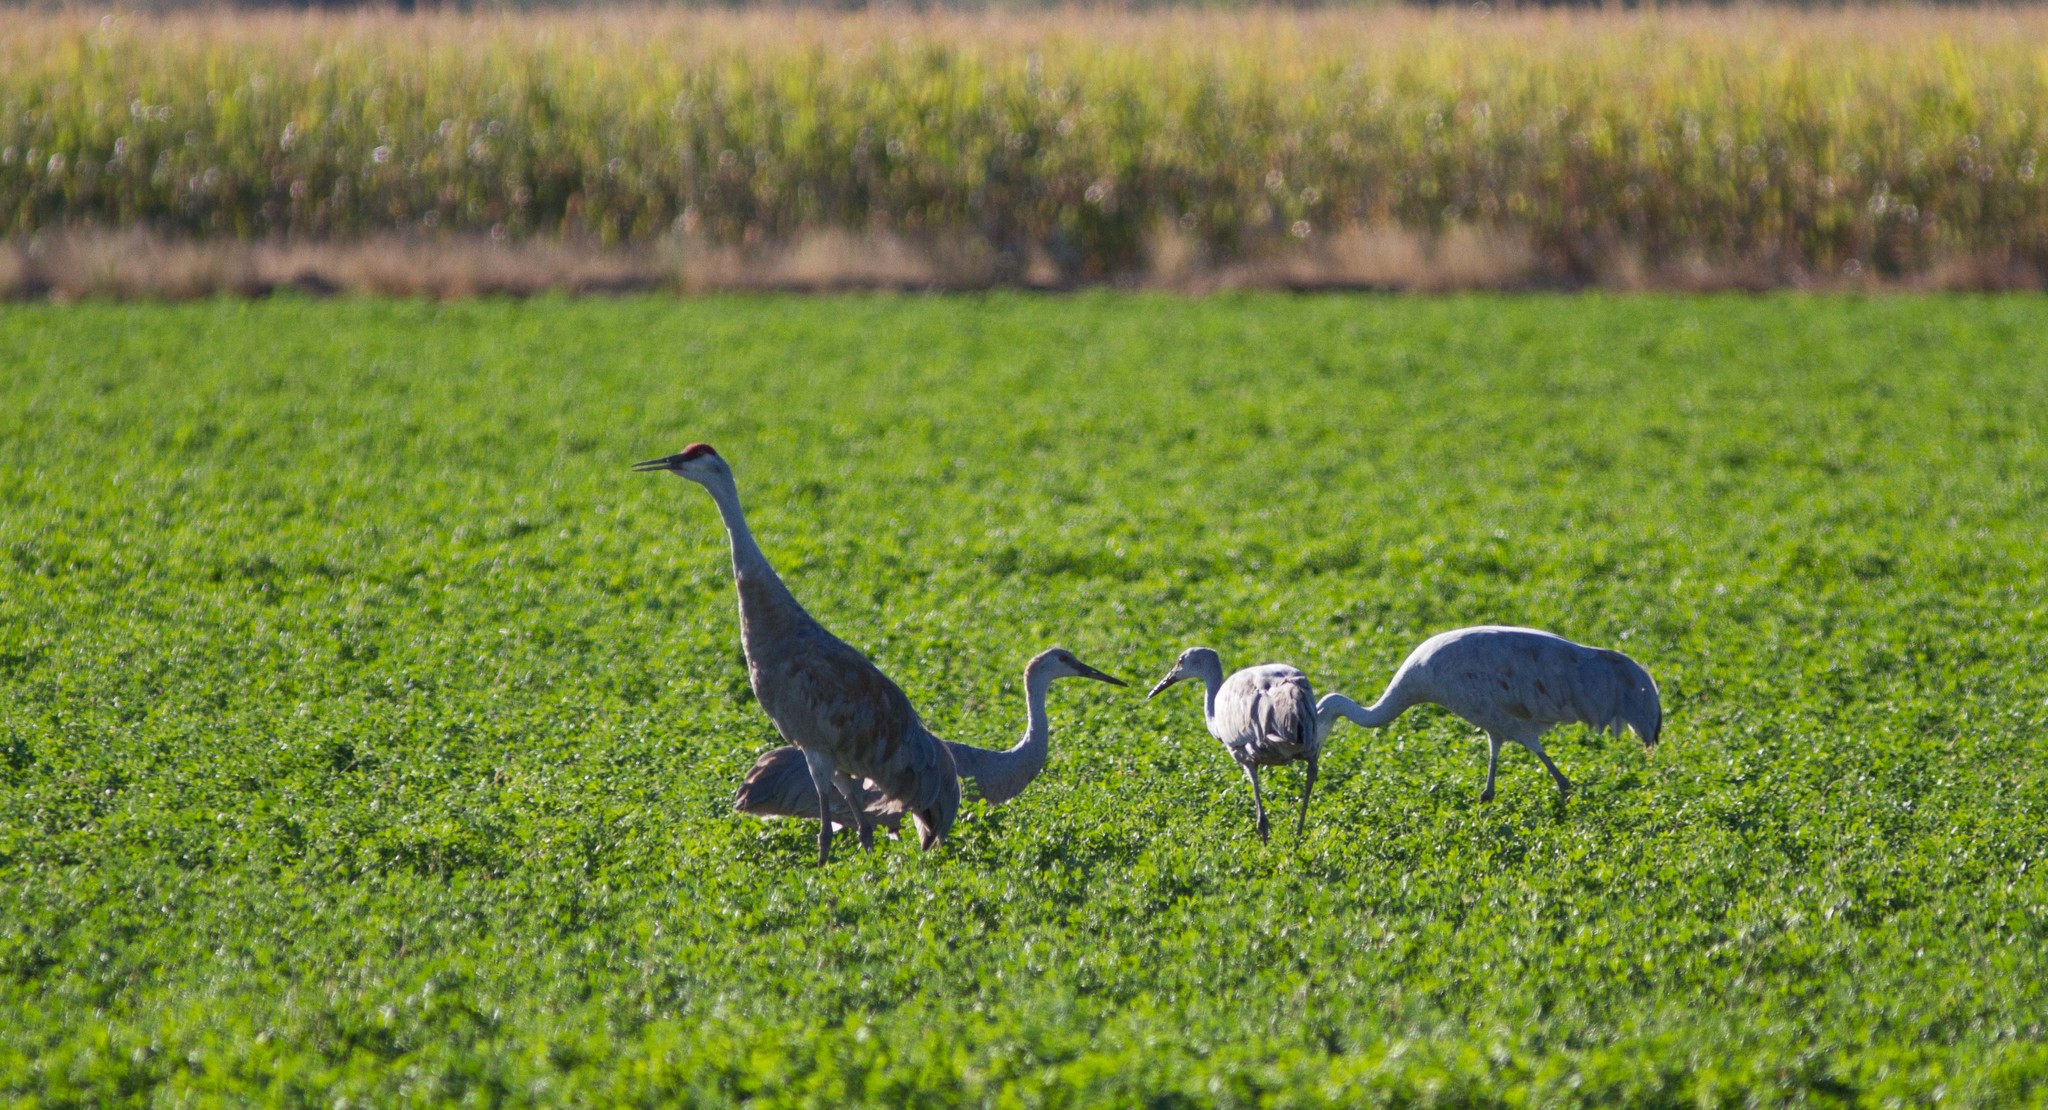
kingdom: Animalia
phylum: Chordata
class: Aves
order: Gruiformes
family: Gruidae
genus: Grus
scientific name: Grus canadensis
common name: Sandhill crane
